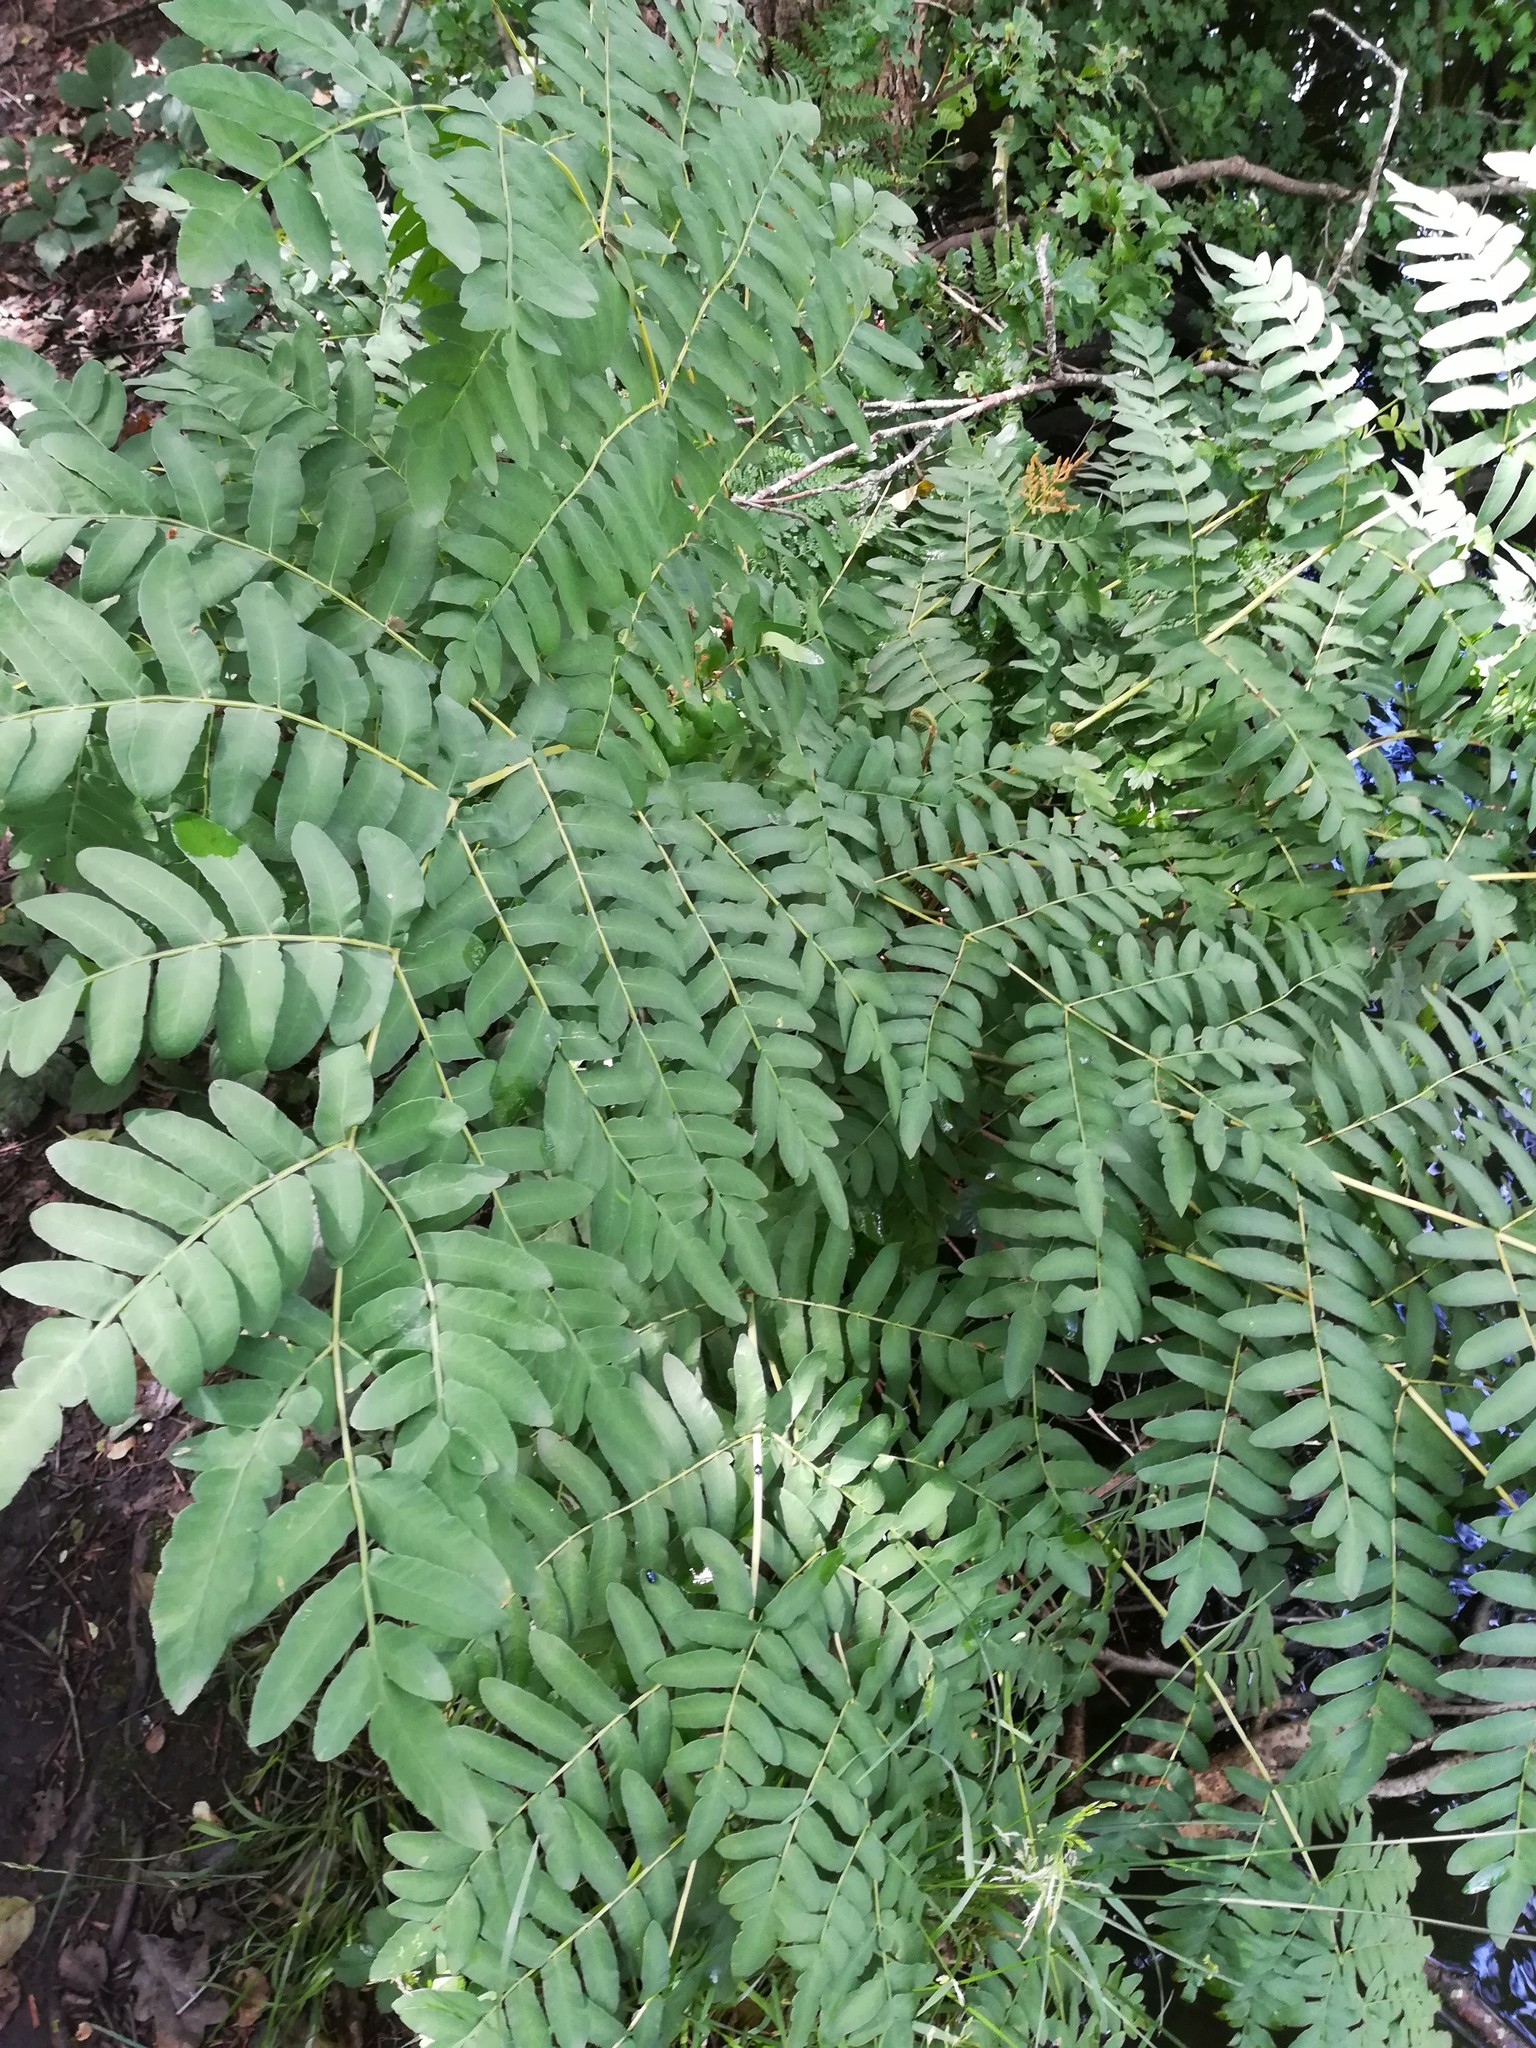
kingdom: Plantae
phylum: Tracheophyta
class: Polypodiopsida
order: Osmundales
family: Osmundaceae
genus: Osmunda
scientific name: Osmunda regalis
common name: Royal fern
